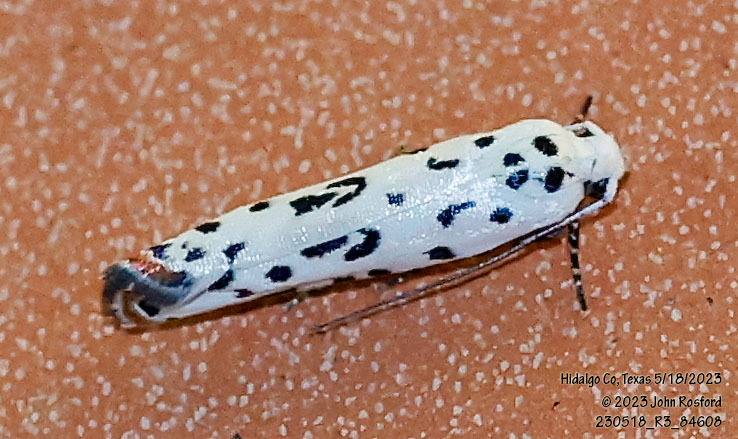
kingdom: Animalia
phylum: Arthropoda
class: Insecta
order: Lepidoptera
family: Ethmiidae
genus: Ethmia
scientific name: Ethmia bittenella
